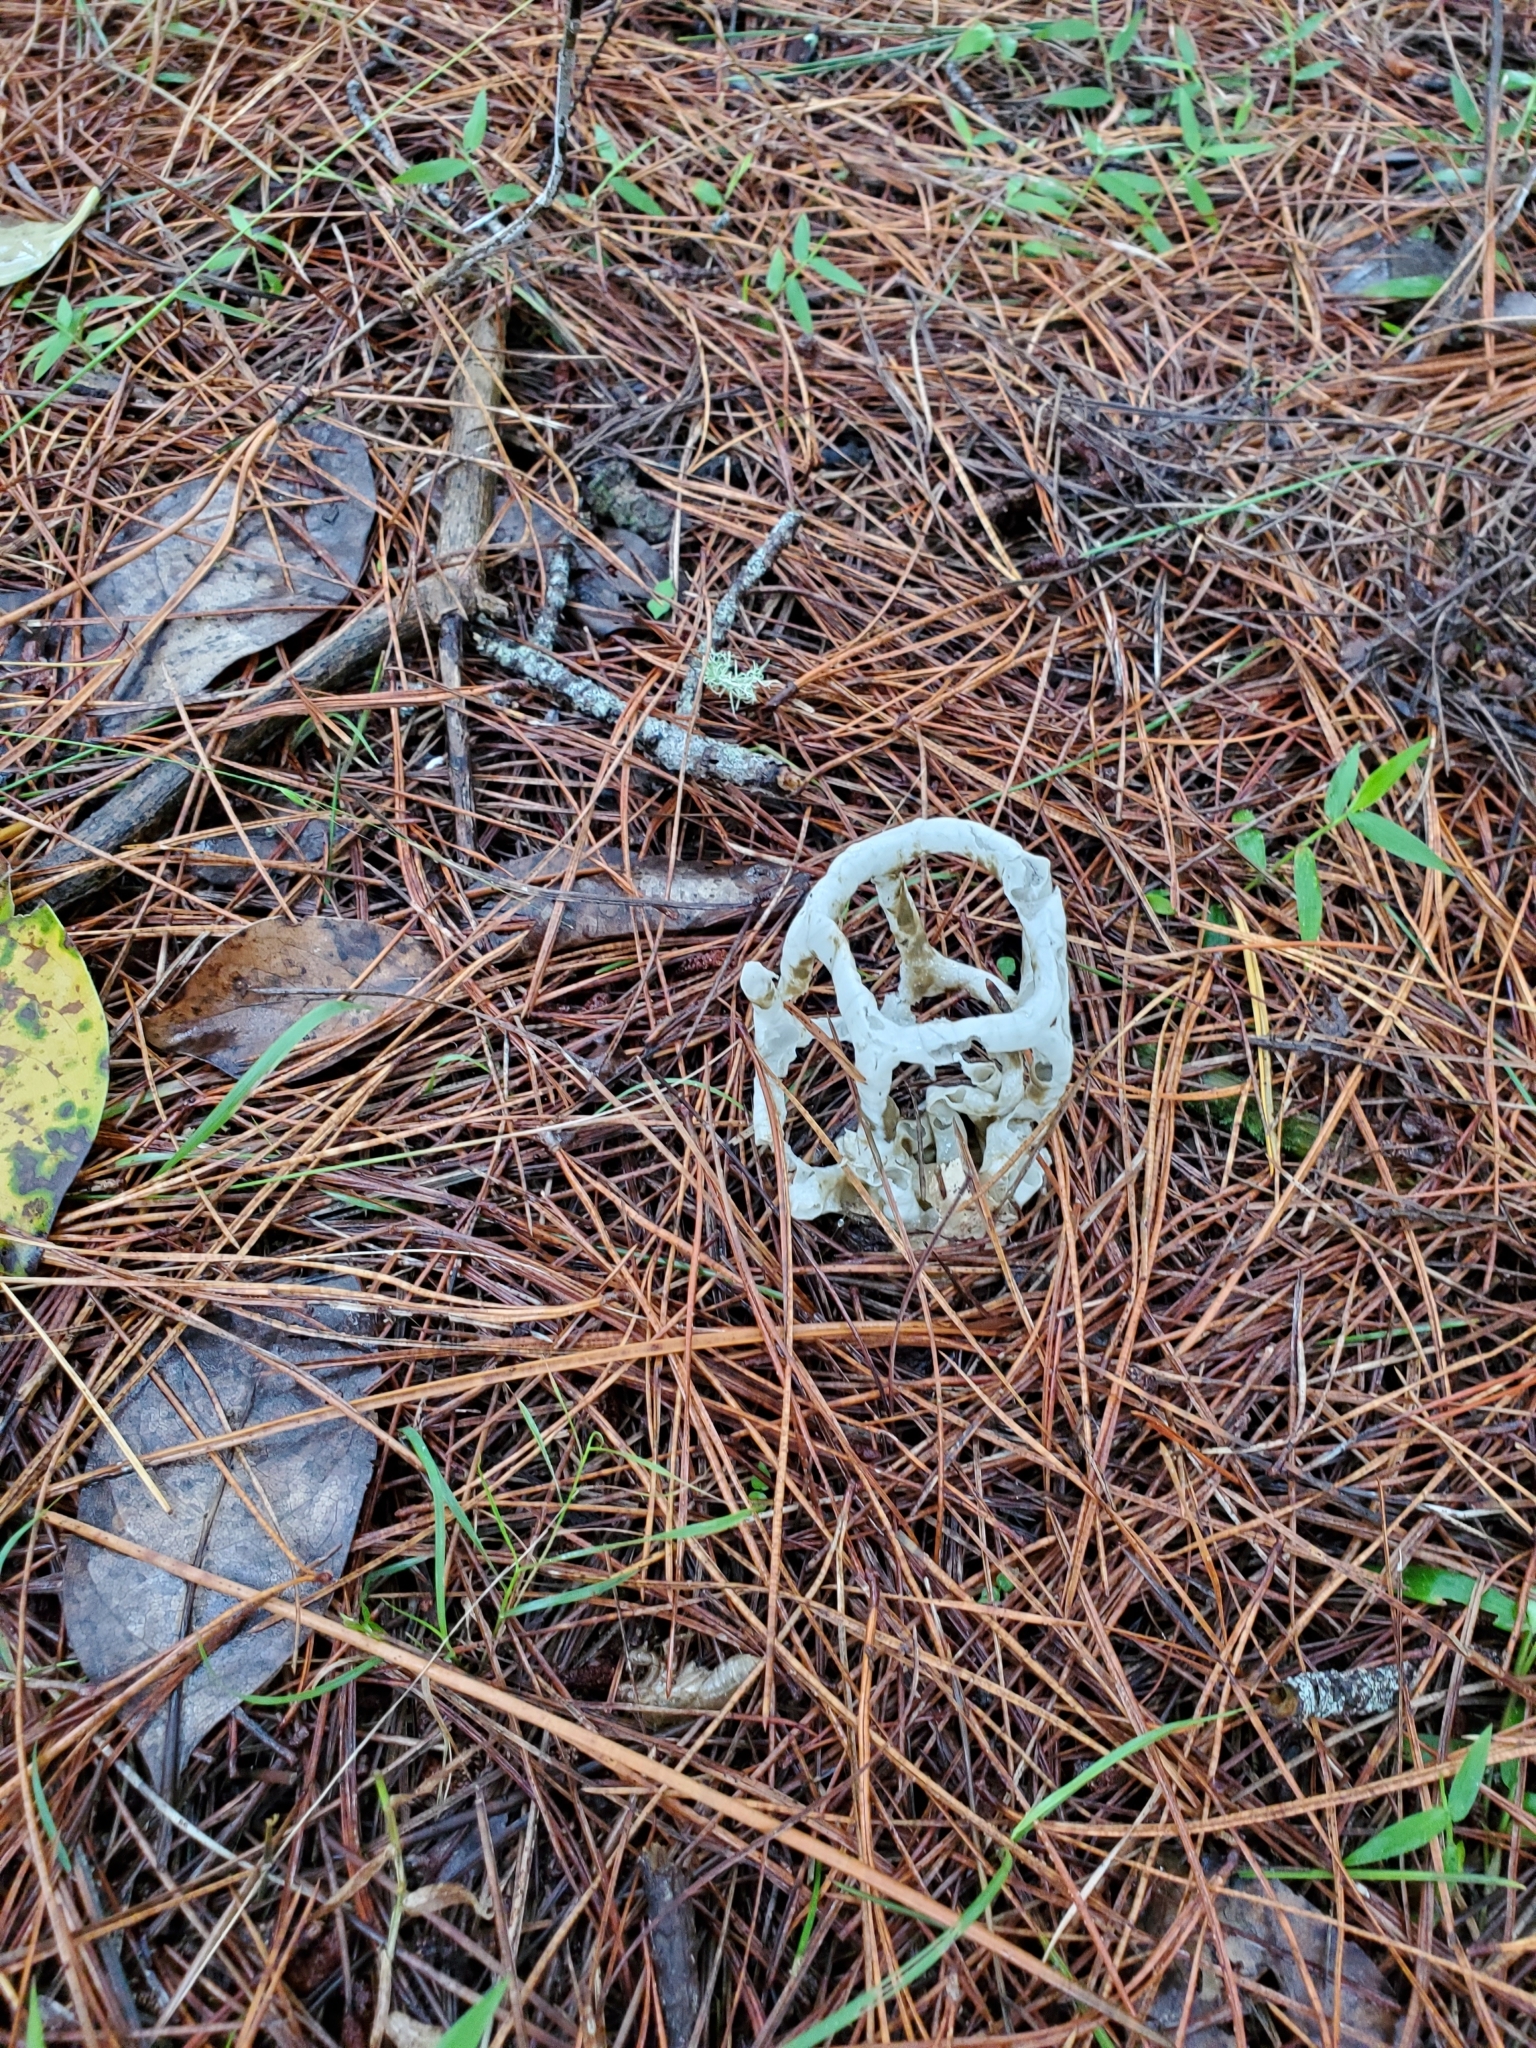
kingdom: Fungi
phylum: Basidiomycota
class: Agaricomycetes
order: Phallales
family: Phallaceae
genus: Ileodictyon
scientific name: Ileodictyon cibarium
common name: Basket fungus
